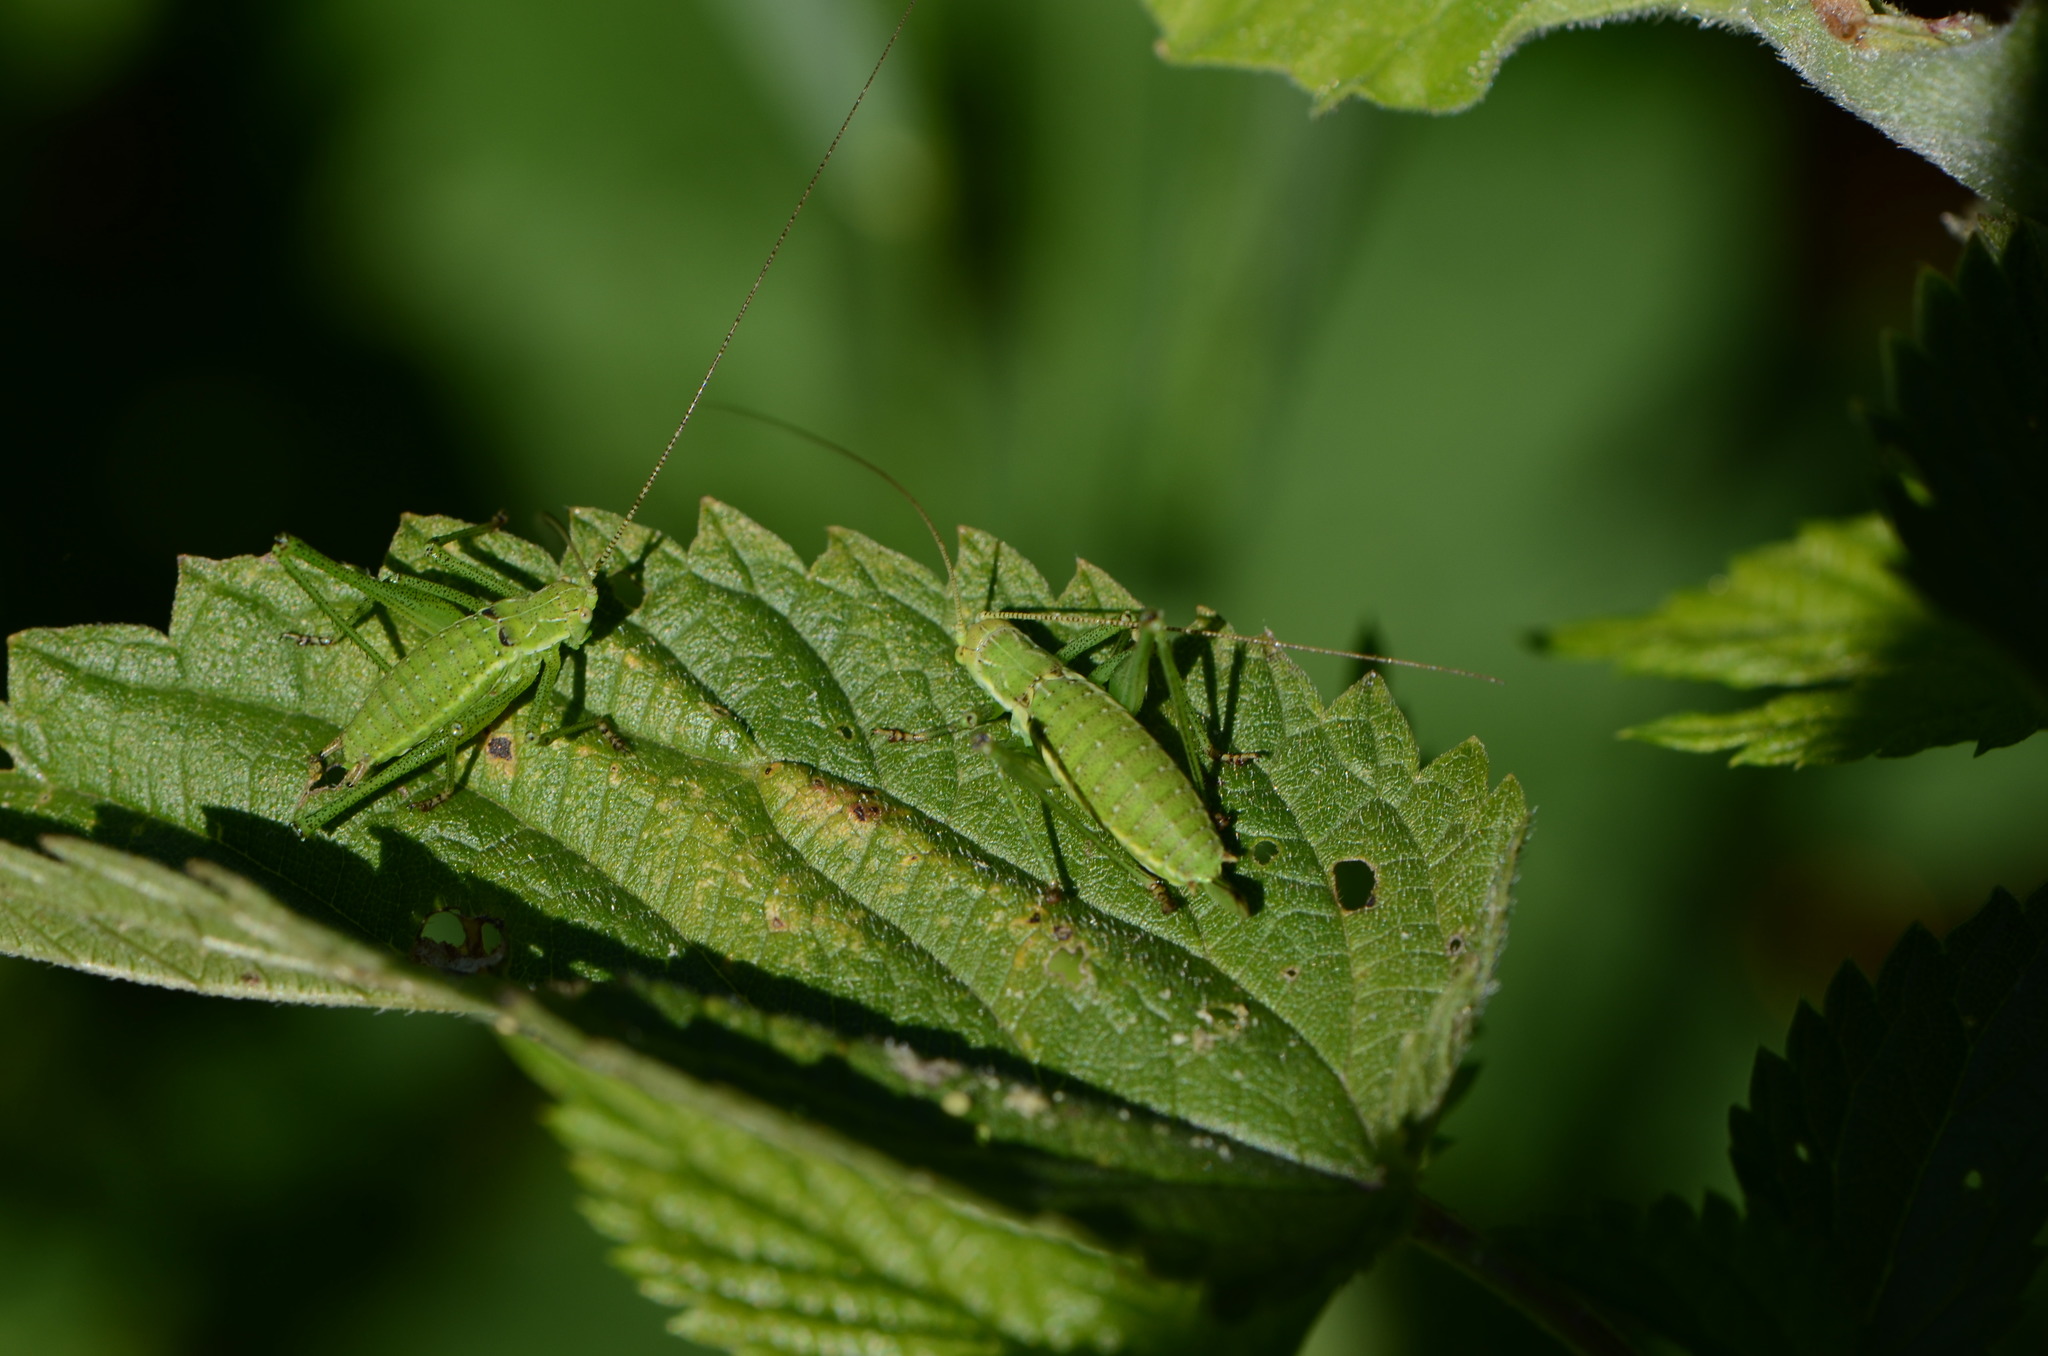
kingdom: Animalia
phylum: Arthropoda
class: Insecta
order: Orthoptera
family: Tettigoniidae
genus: Leptophyes
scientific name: Leptophyes albovittata
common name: Striped bush-cricket
